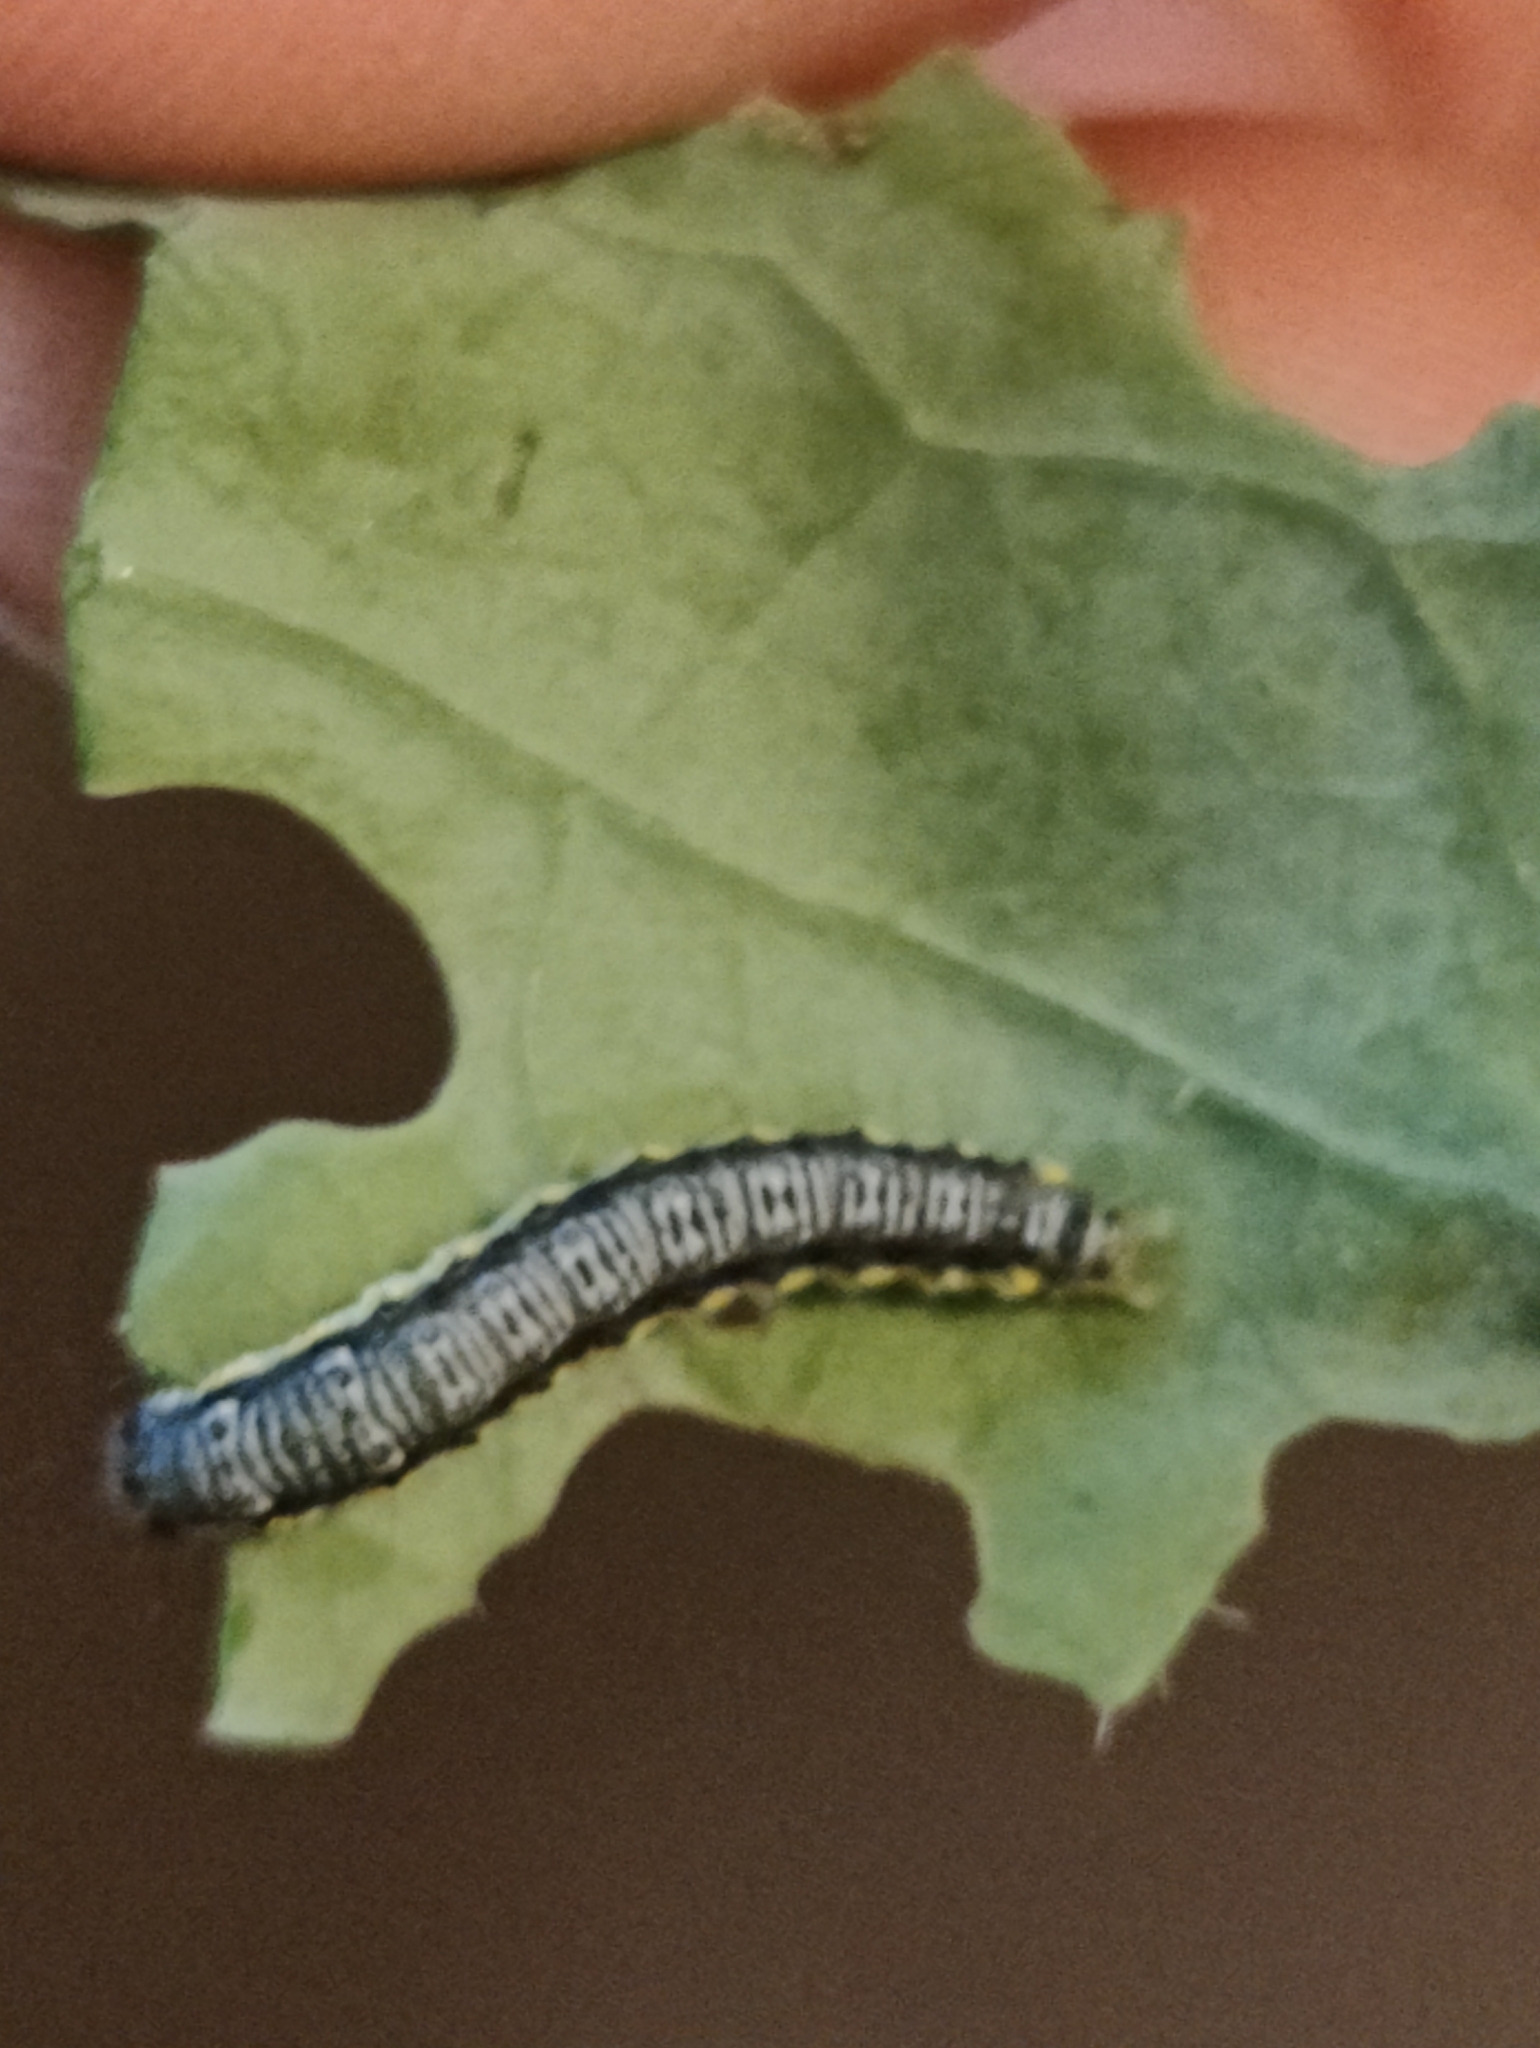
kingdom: Animalia
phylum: Arthropoda
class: Insecta
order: Lepidoptera
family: Crambidae
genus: Evergestis
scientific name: Evergestis rimosalis
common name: Cross-striped cabbageworm moth
